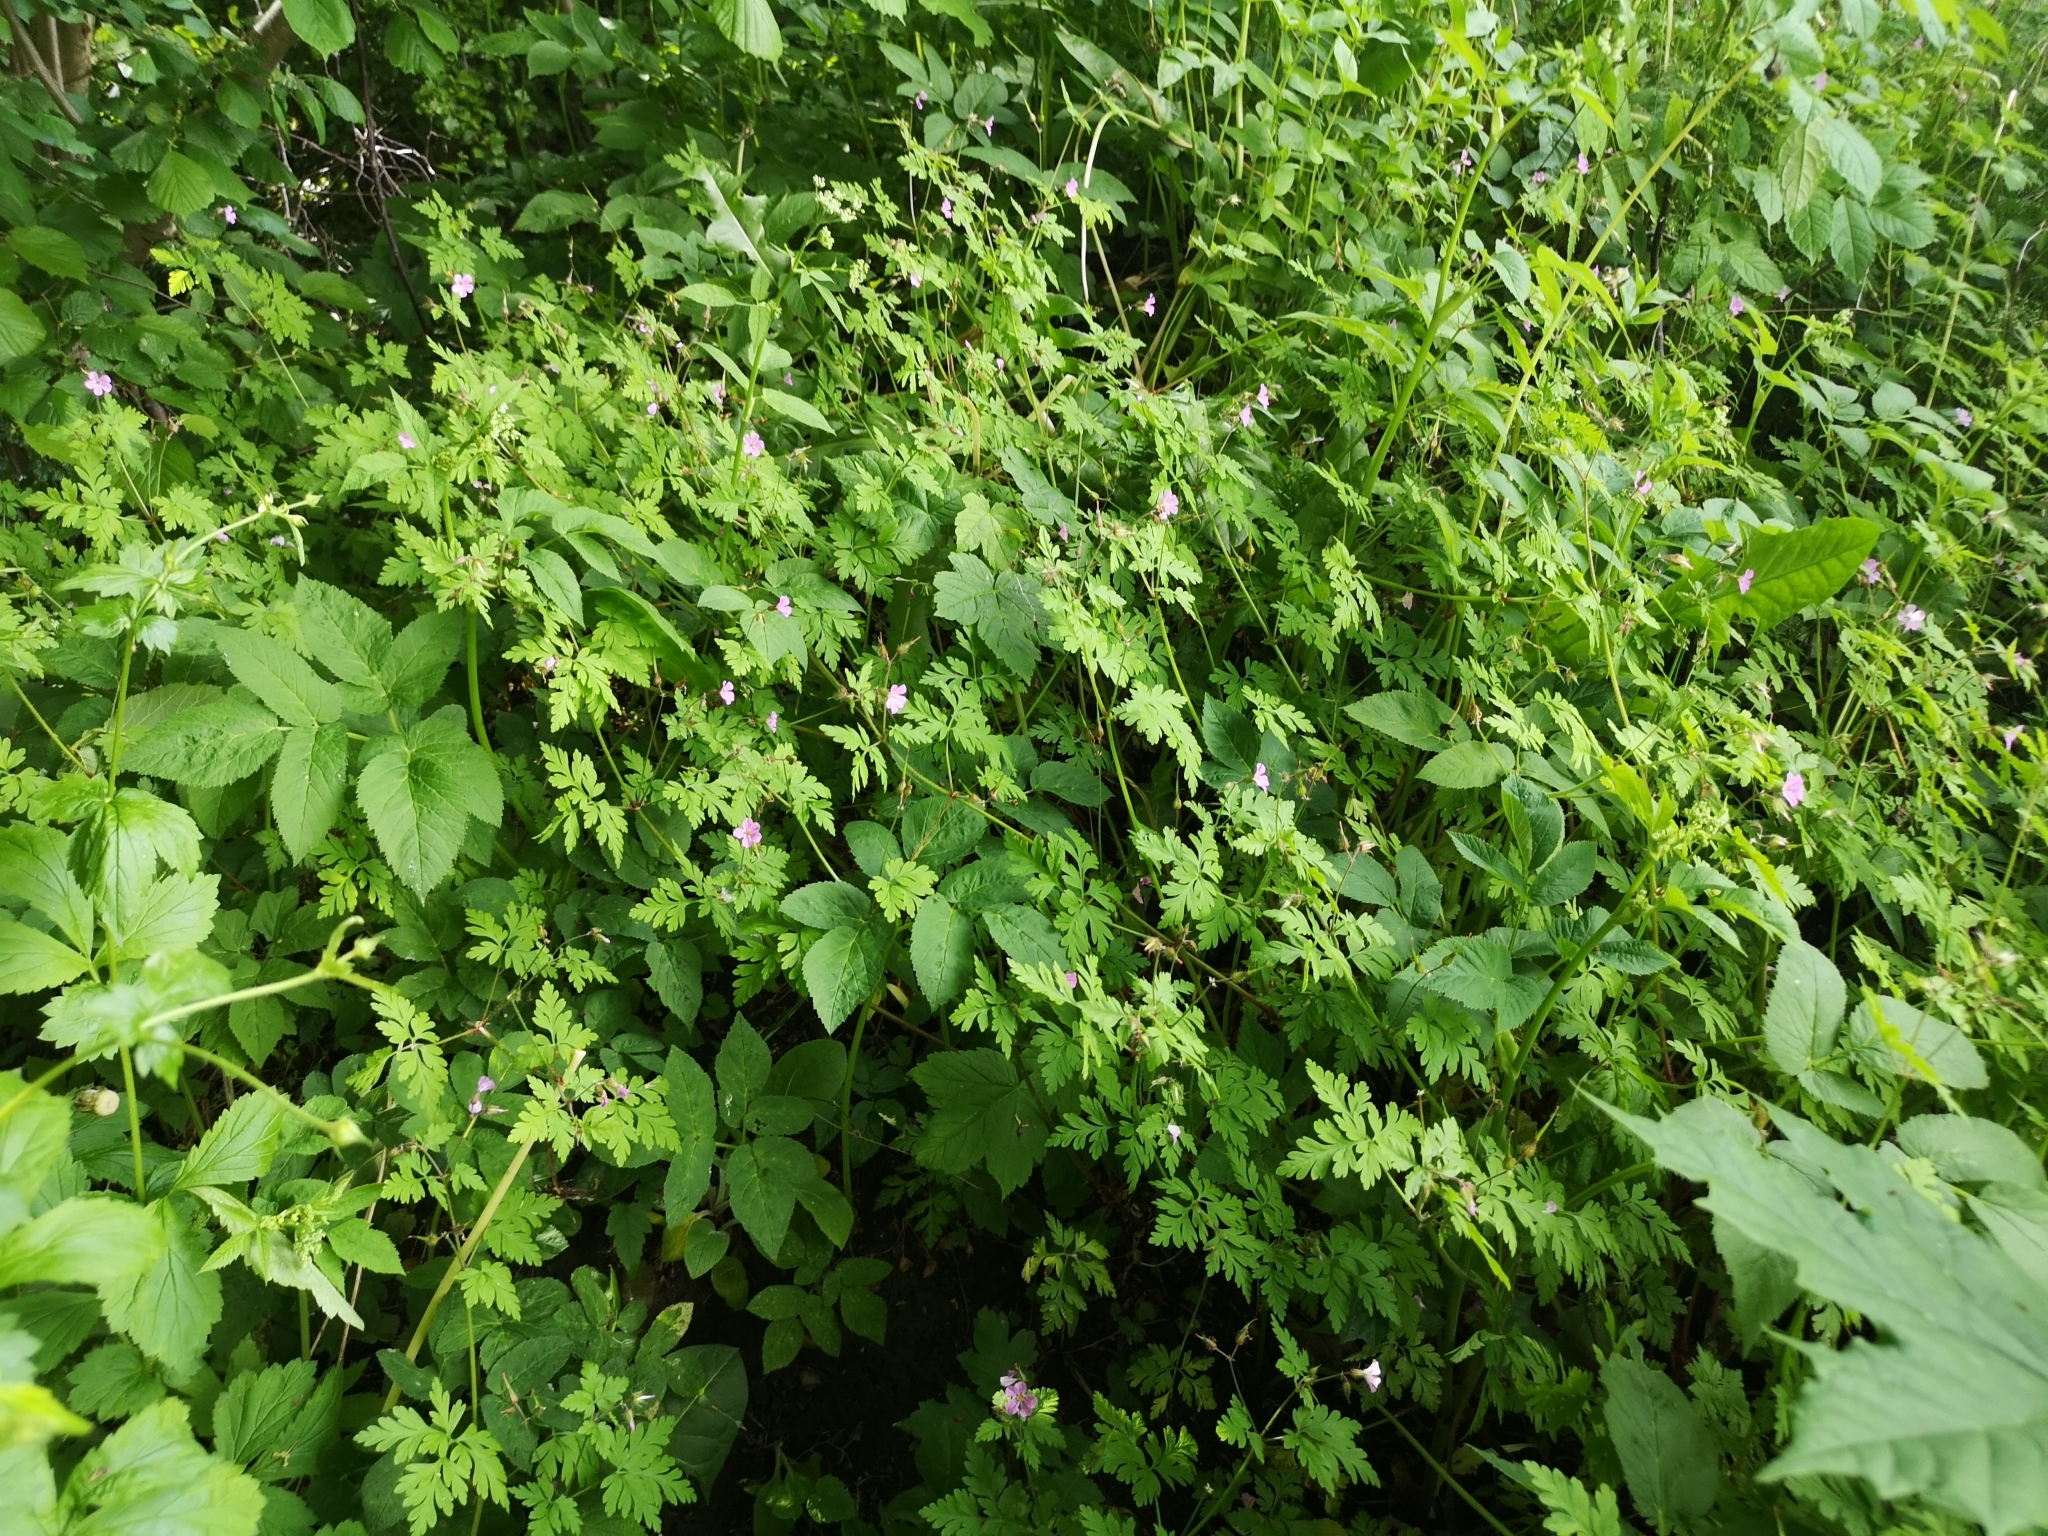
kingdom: Plantae
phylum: Tracheophyta
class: Magnoliopsida
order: Geraniales
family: Geraniaceae
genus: Geranium
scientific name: Geranium robertianum
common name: Herb-robert
